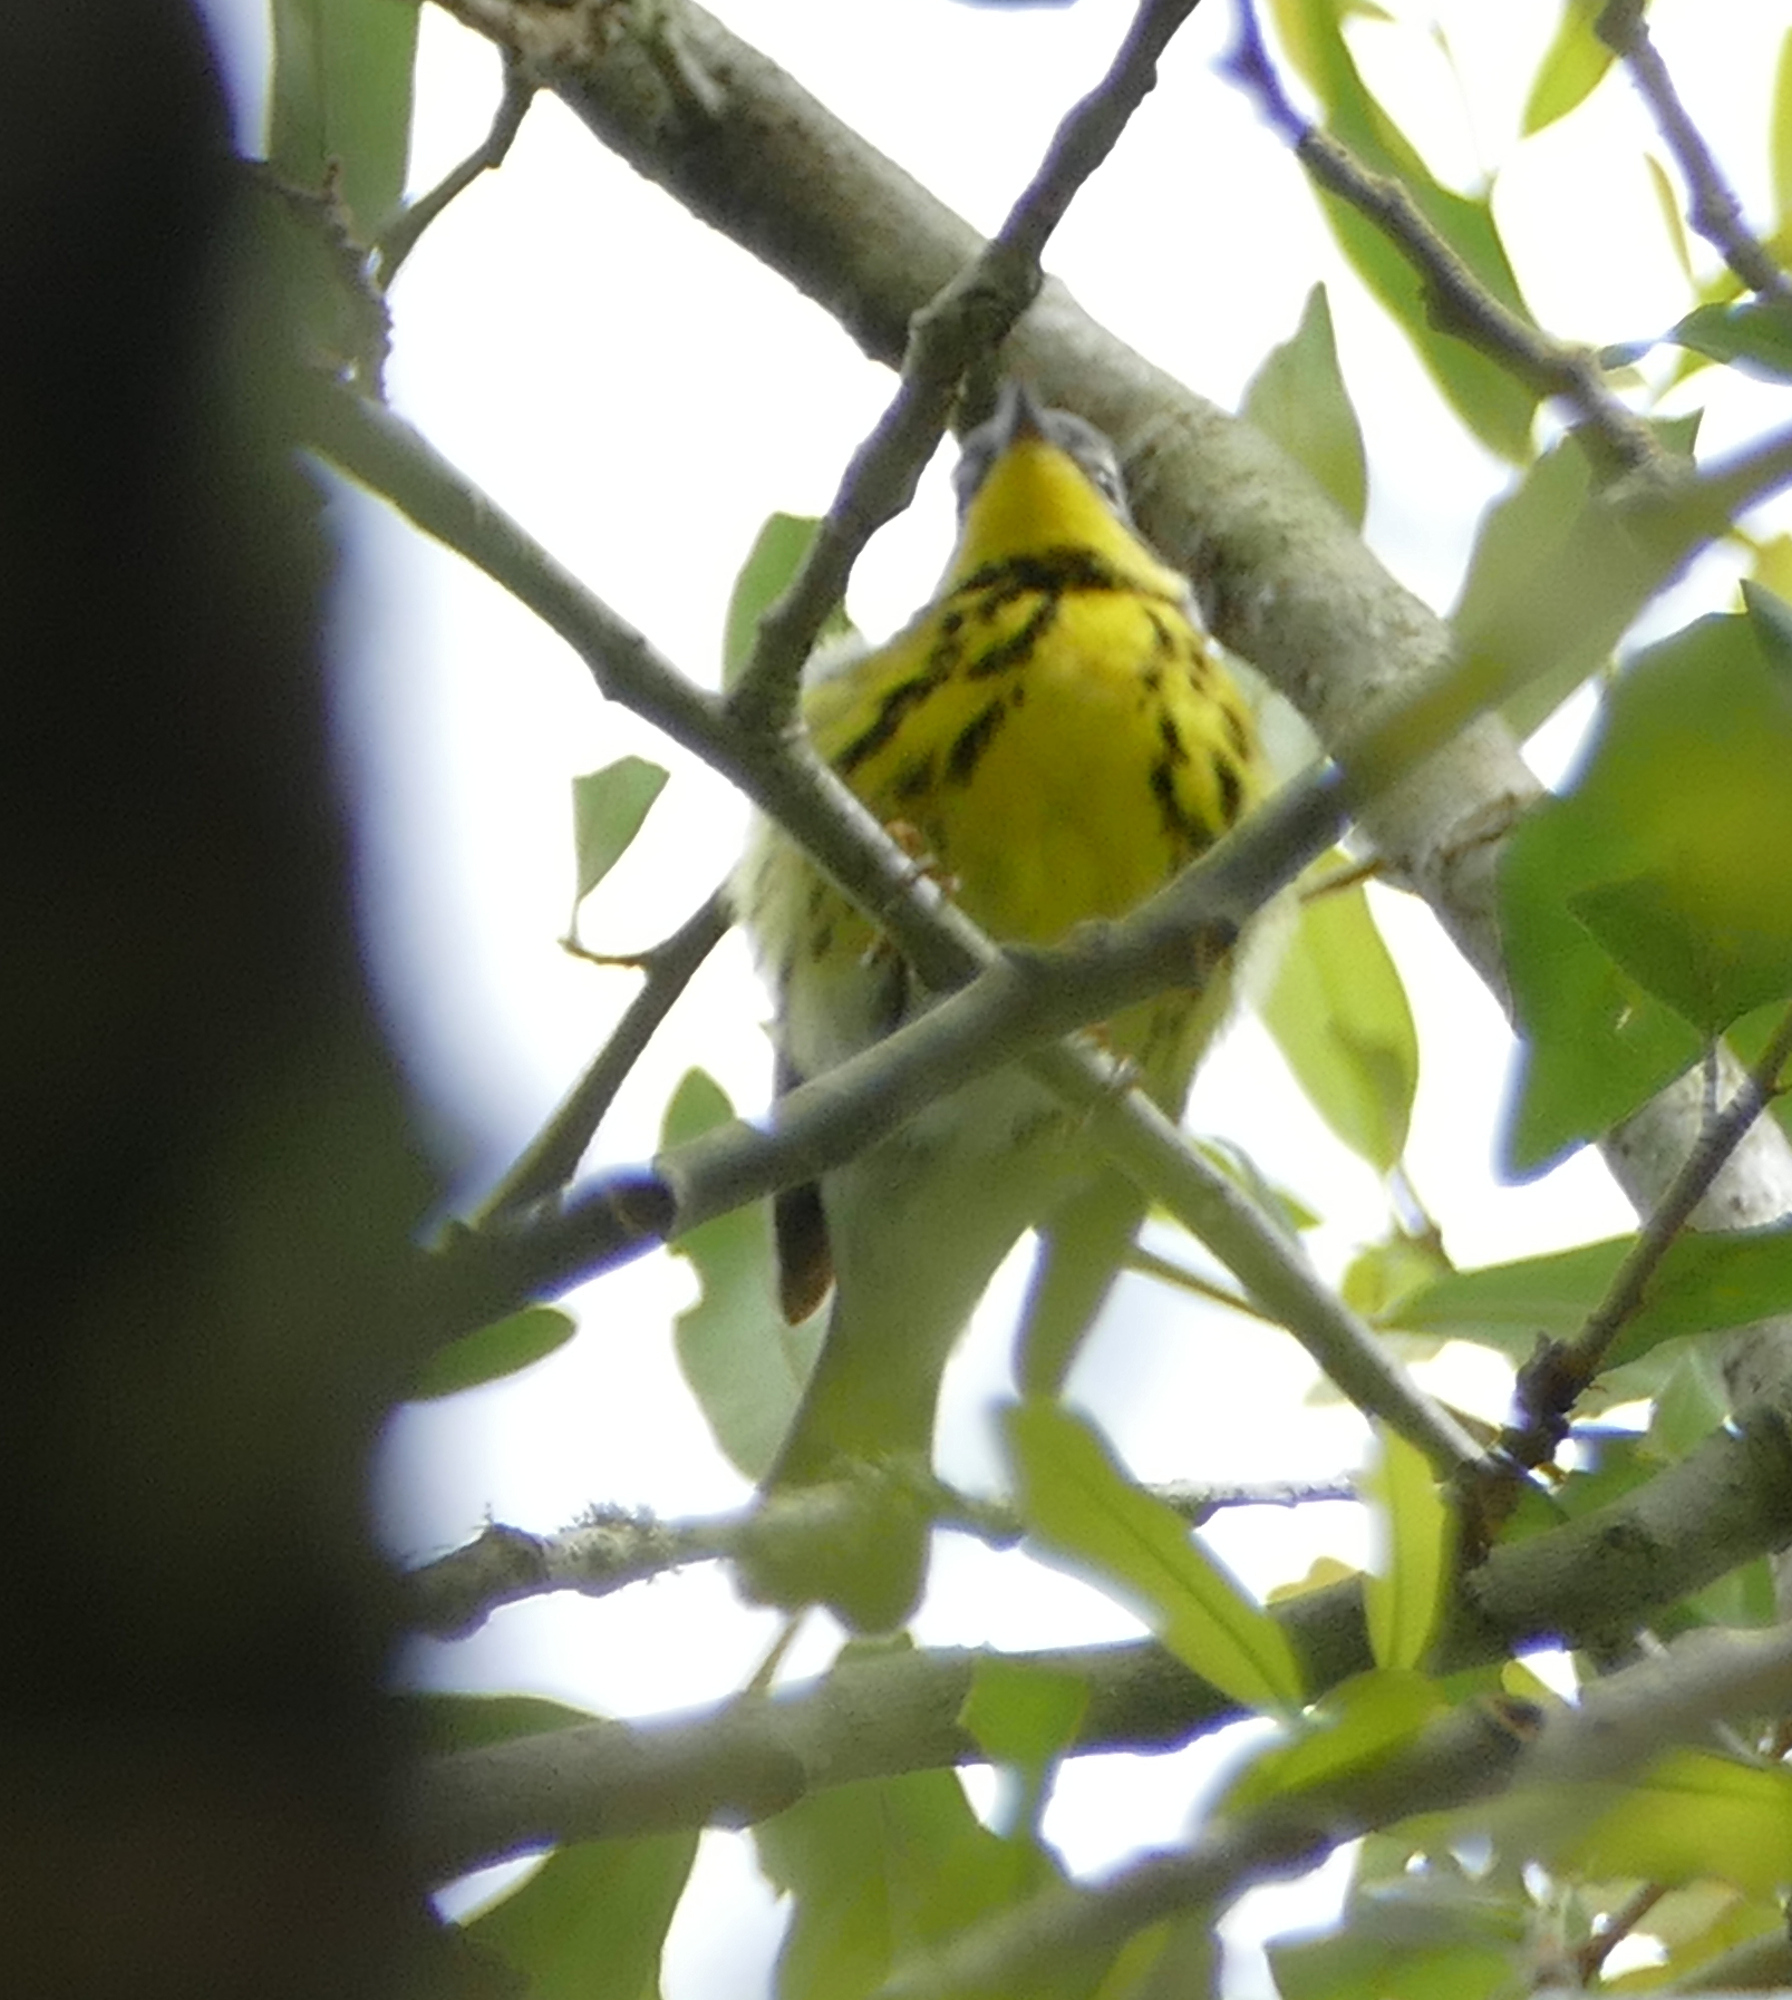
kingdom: Animalia
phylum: Chordata
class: Aves
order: Passeriformes
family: Parulidae
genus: Setophaga
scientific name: Setophaga magnolia
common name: Magnolia warbler
